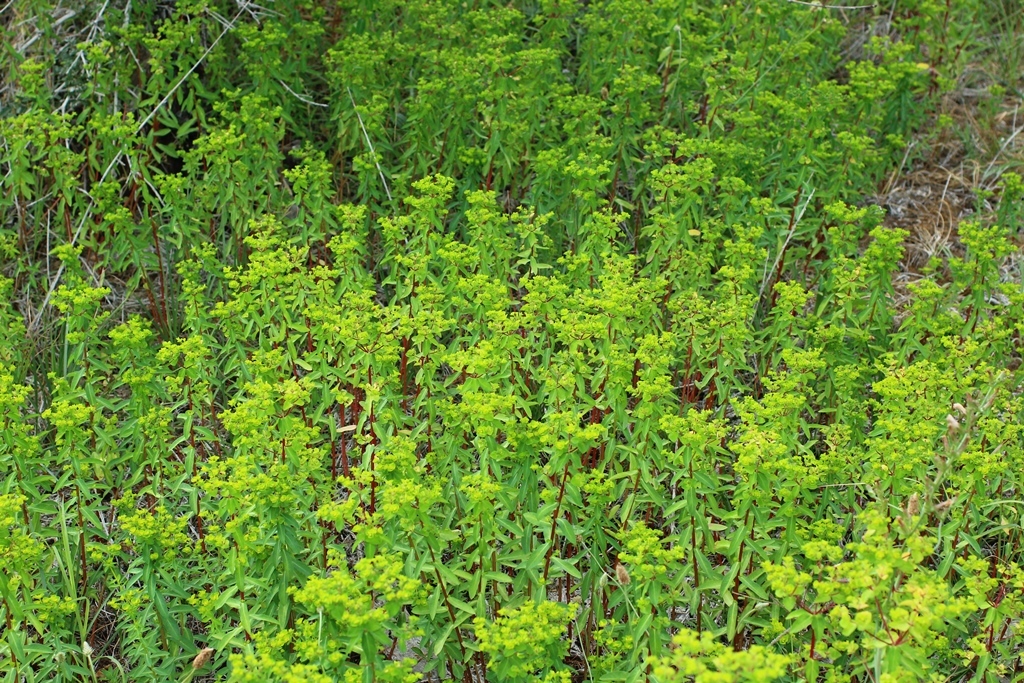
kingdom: Plantae
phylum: Tracheophyta
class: Magnoliopsida
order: Malpighiales
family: Euphorbiaceae
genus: Euphorbia
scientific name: Euphorbia platyphyllos
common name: Broad-leaved spurge
